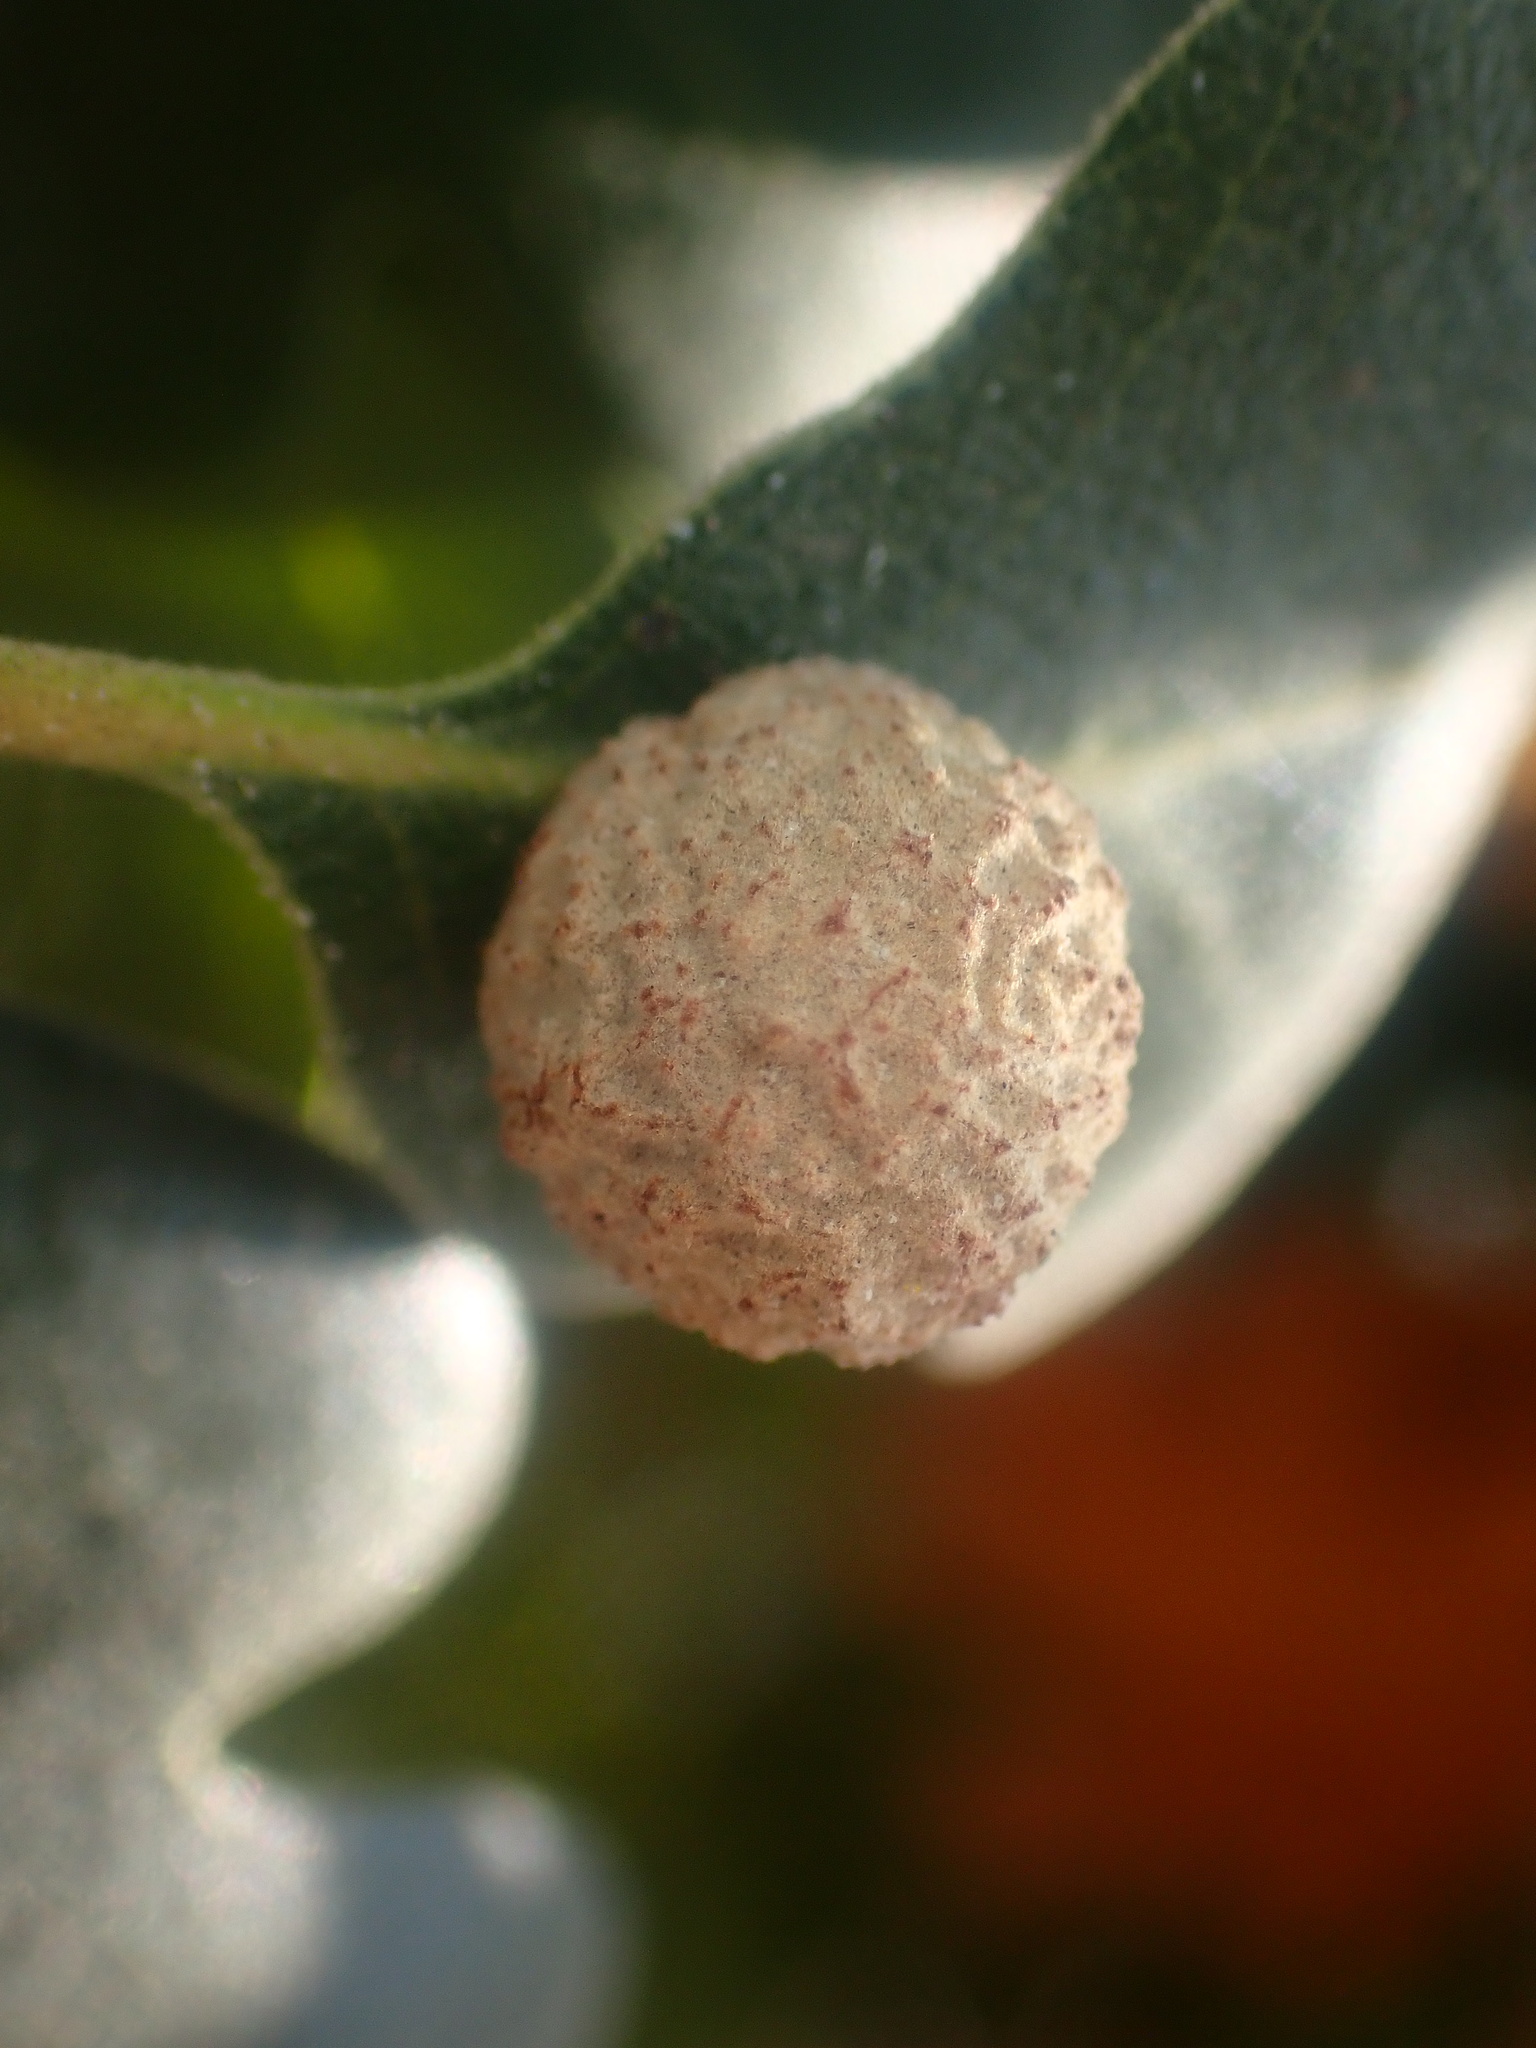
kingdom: Animalia
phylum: Arthropoda
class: Insecta
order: Hymenoptera
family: Cynipidae
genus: Cynips
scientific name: Cynips conspicua
